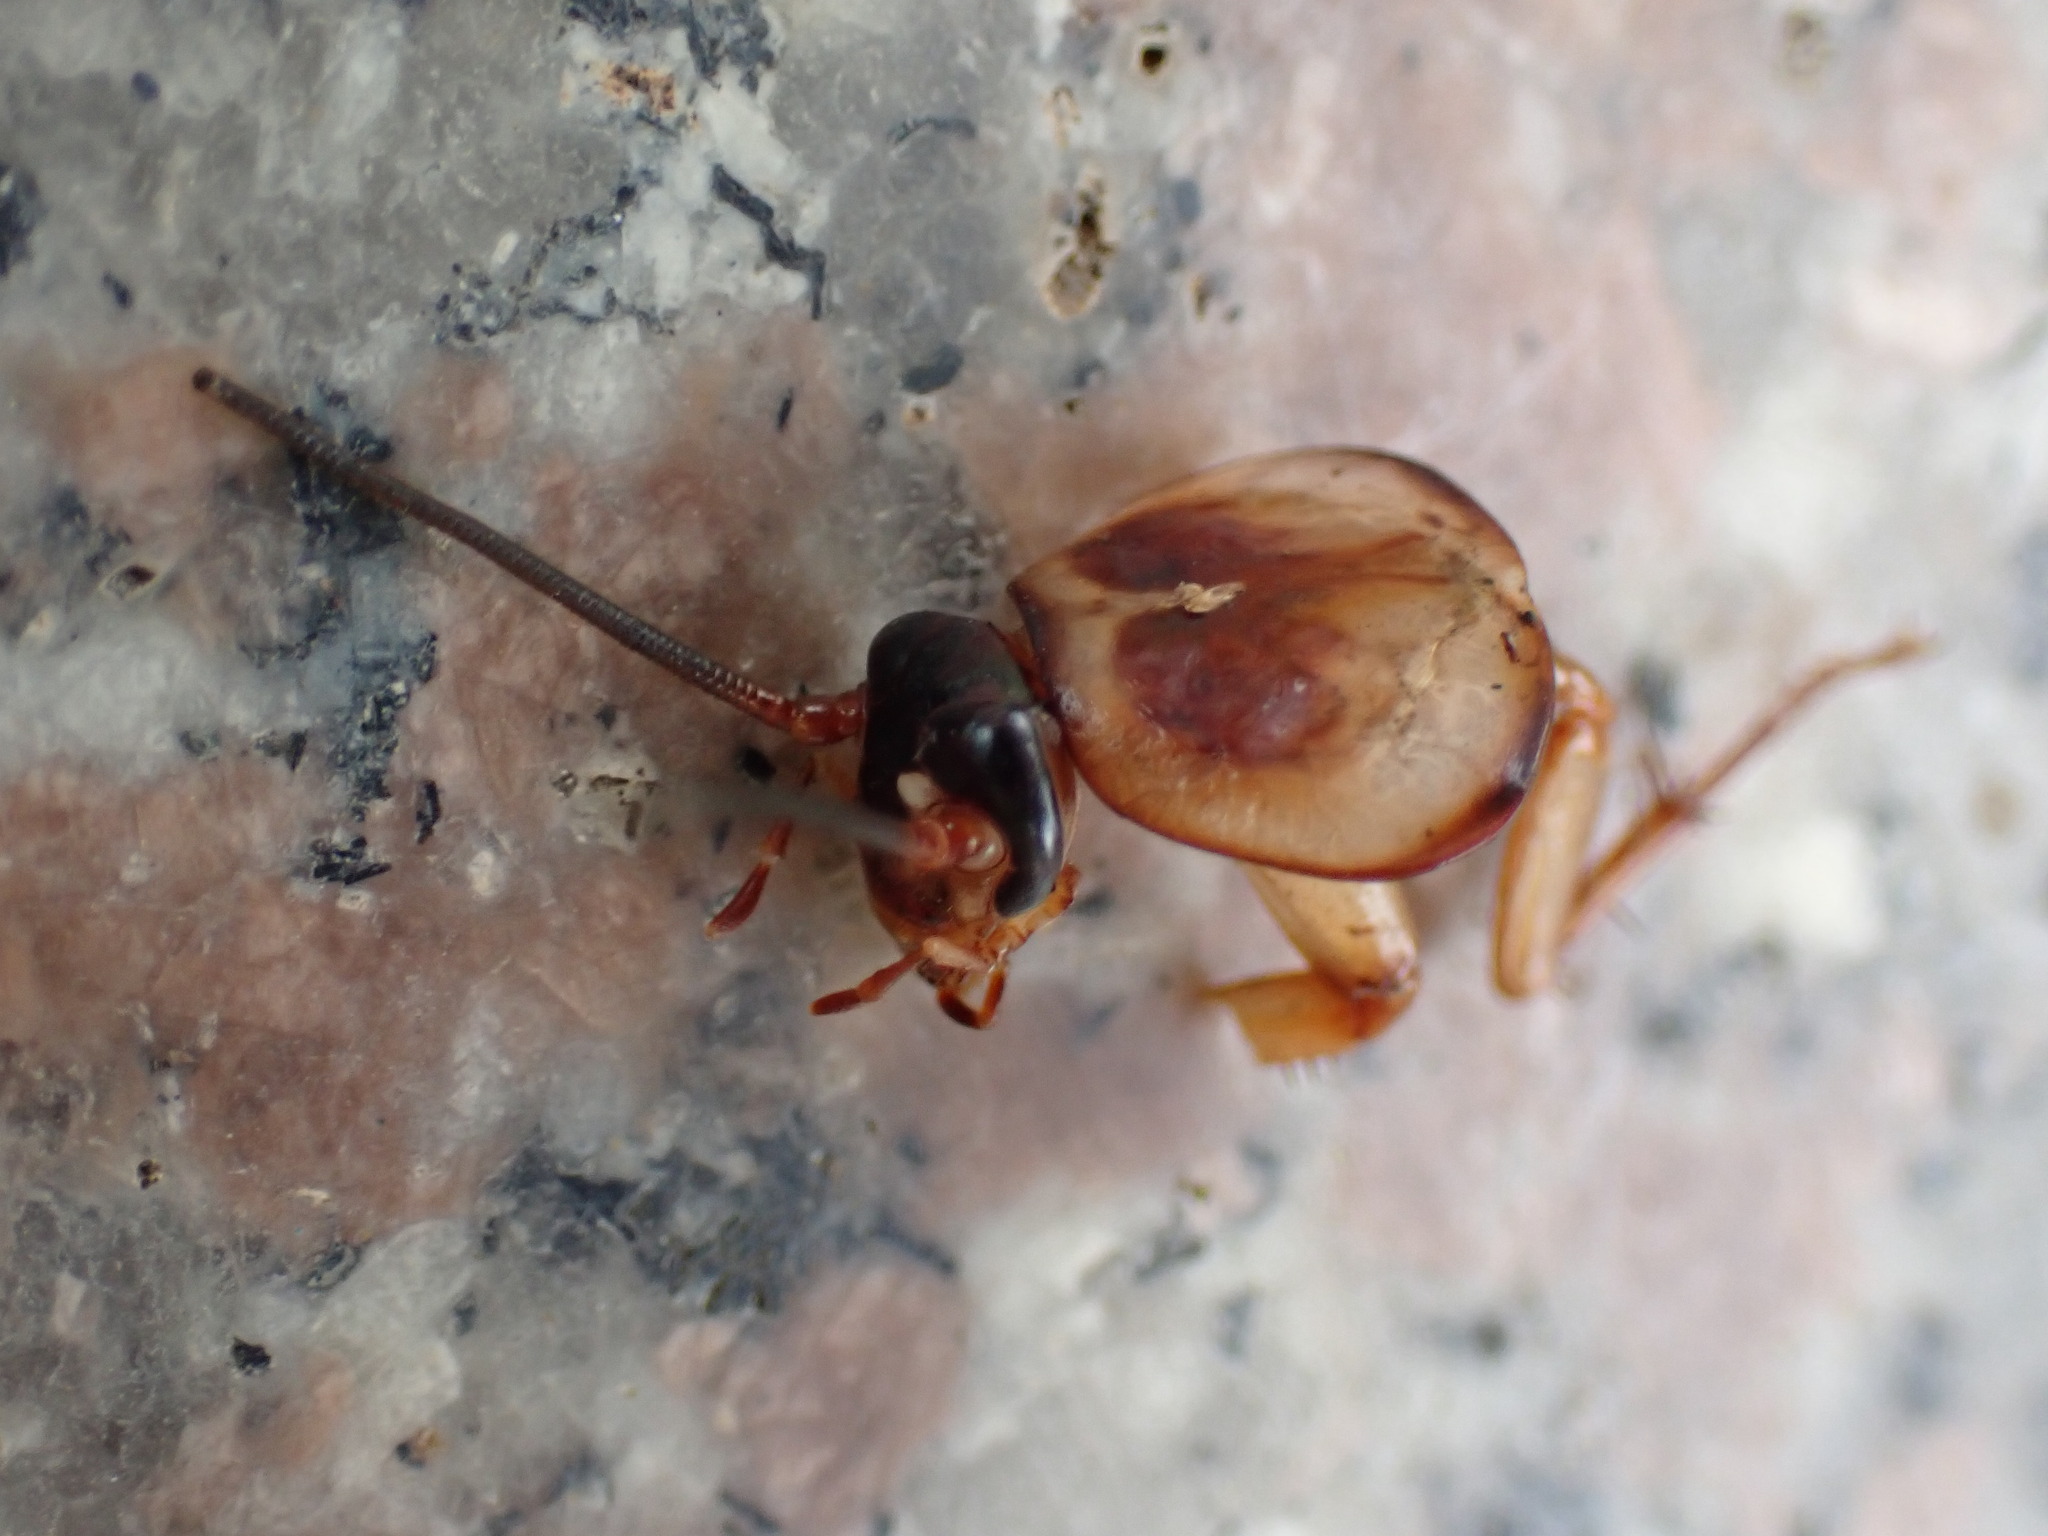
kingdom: Animalia
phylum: Arthropoda
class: Insecta
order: Blattodea
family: Blattidae
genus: Periplaneta
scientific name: Periplaneta americana
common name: American cockroach
